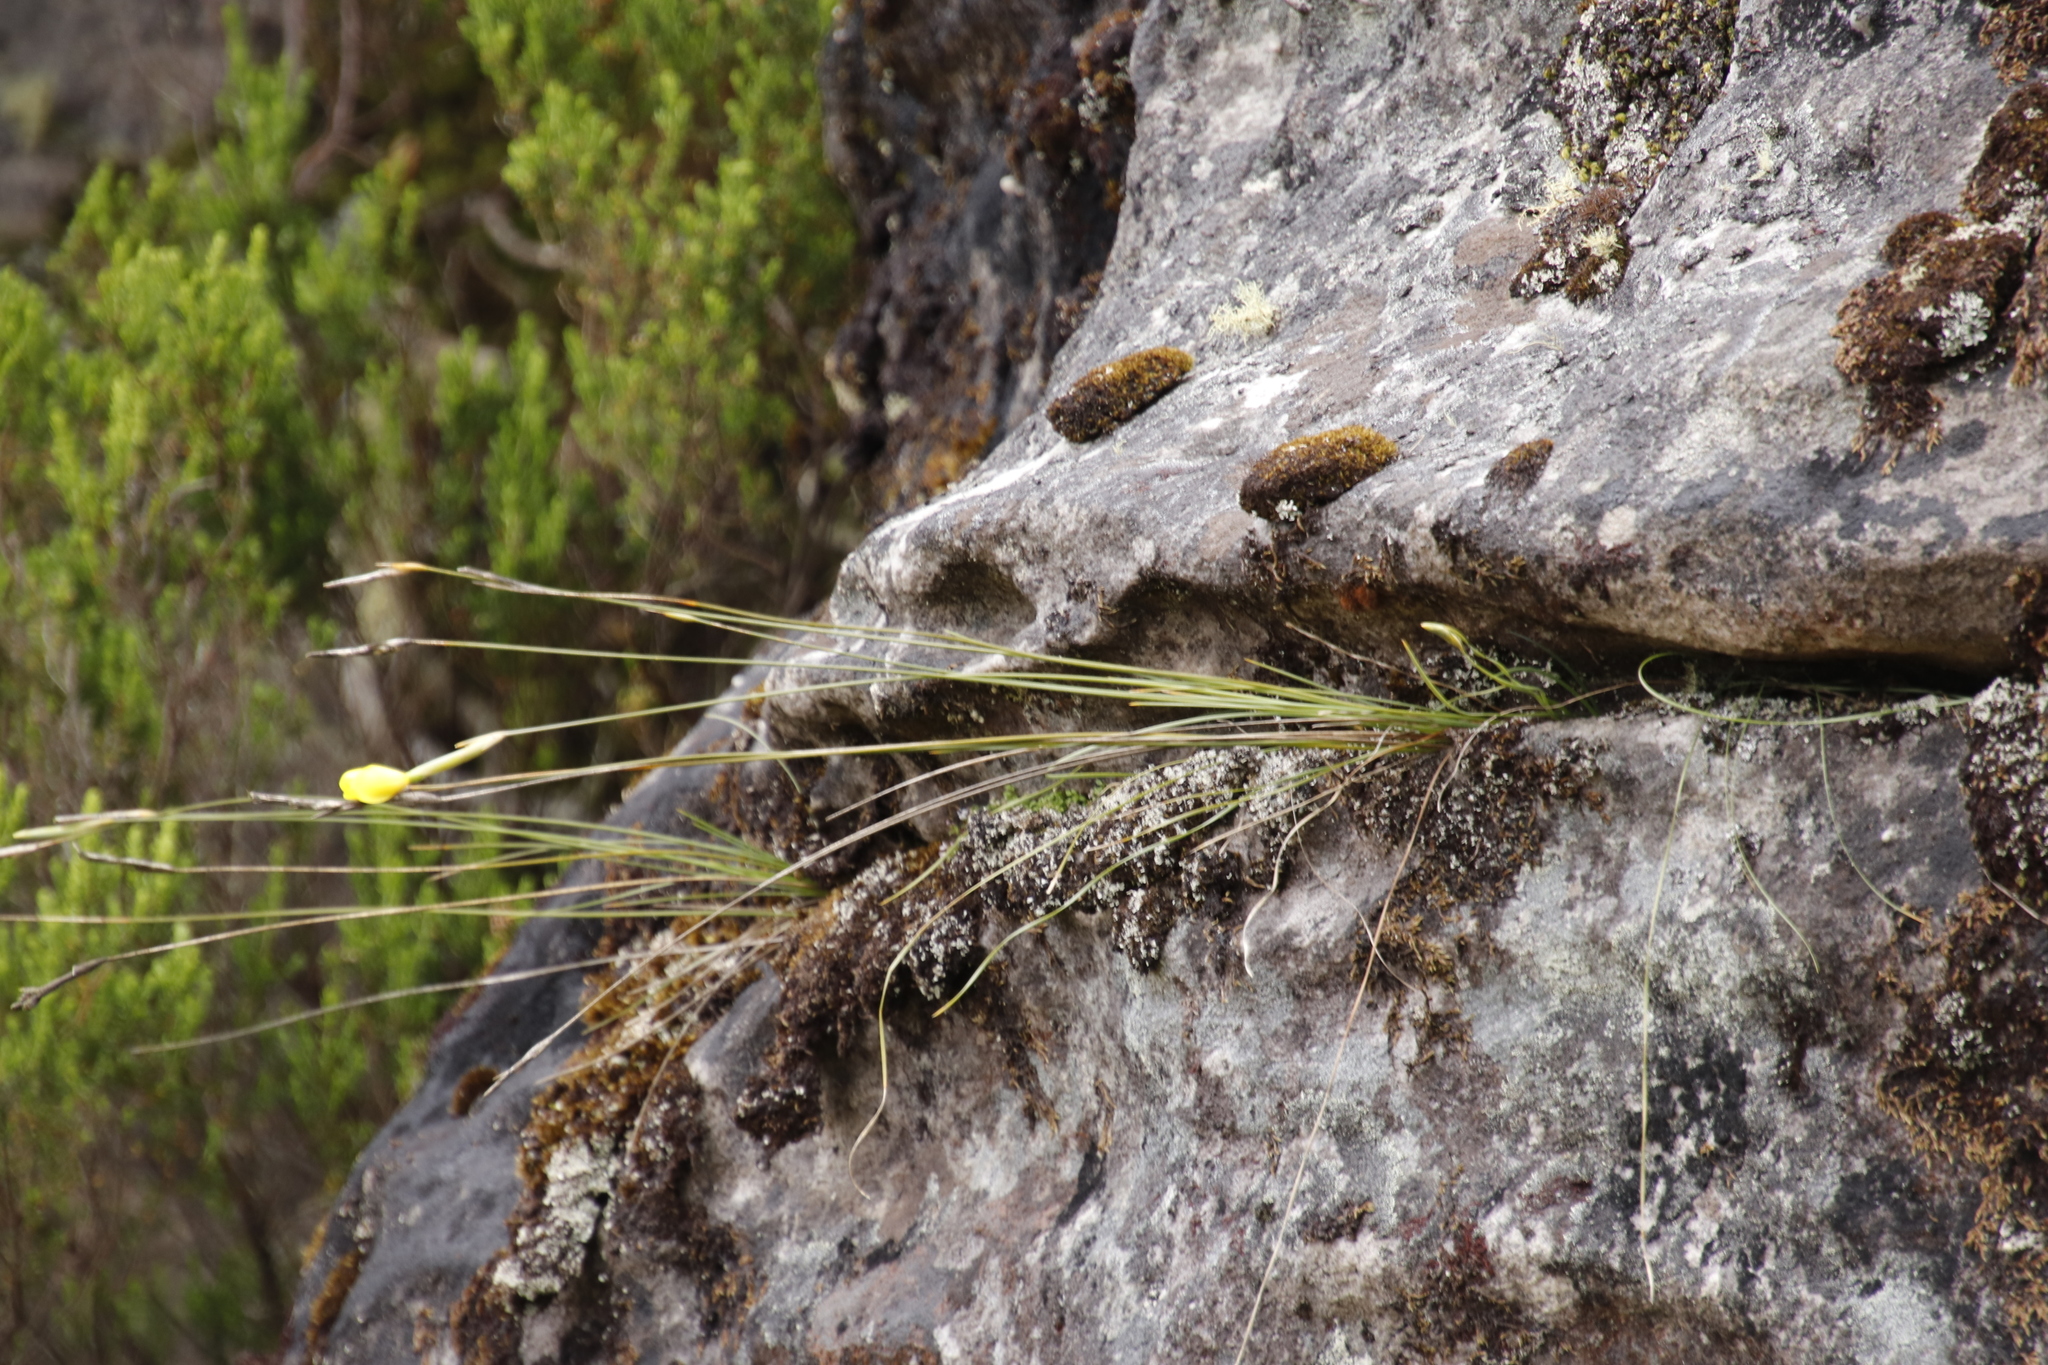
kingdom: Plantae
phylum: Tracheophyta
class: Liliopsida
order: Asparagales
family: Iridaceae
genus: Bobartia
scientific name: Bobartia filiformis
